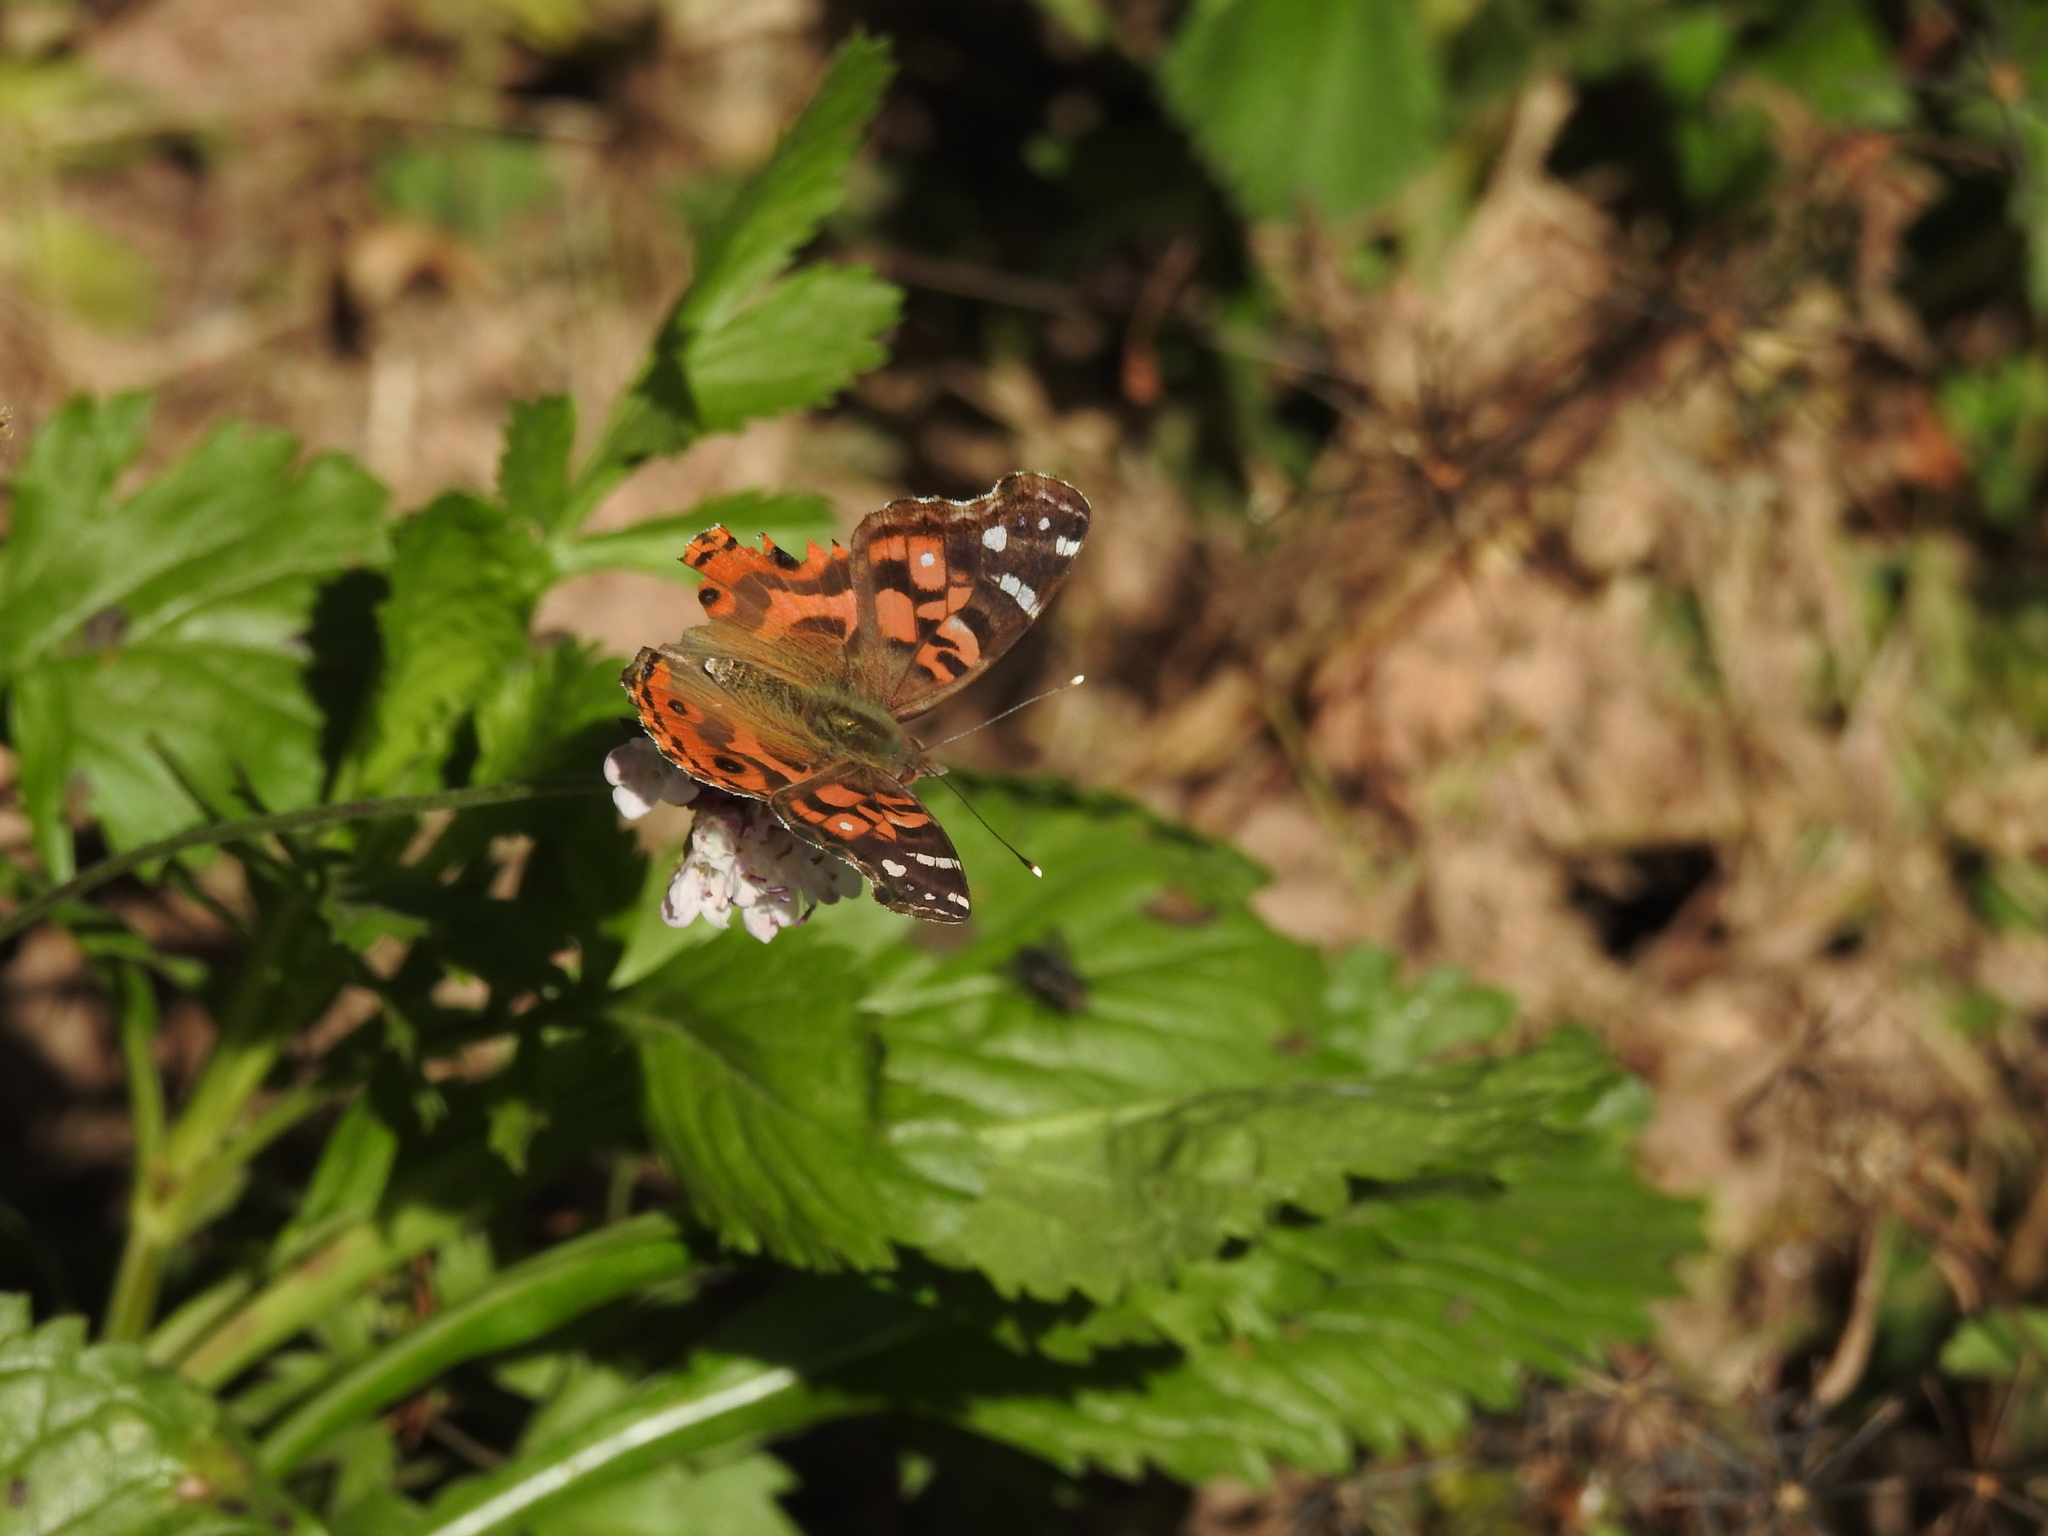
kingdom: Animalia
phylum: Arthropoda
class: Insecta
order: Lepidoptera
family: Nymphalidae
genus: Vanessa
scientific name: Vanessa braziliensis
